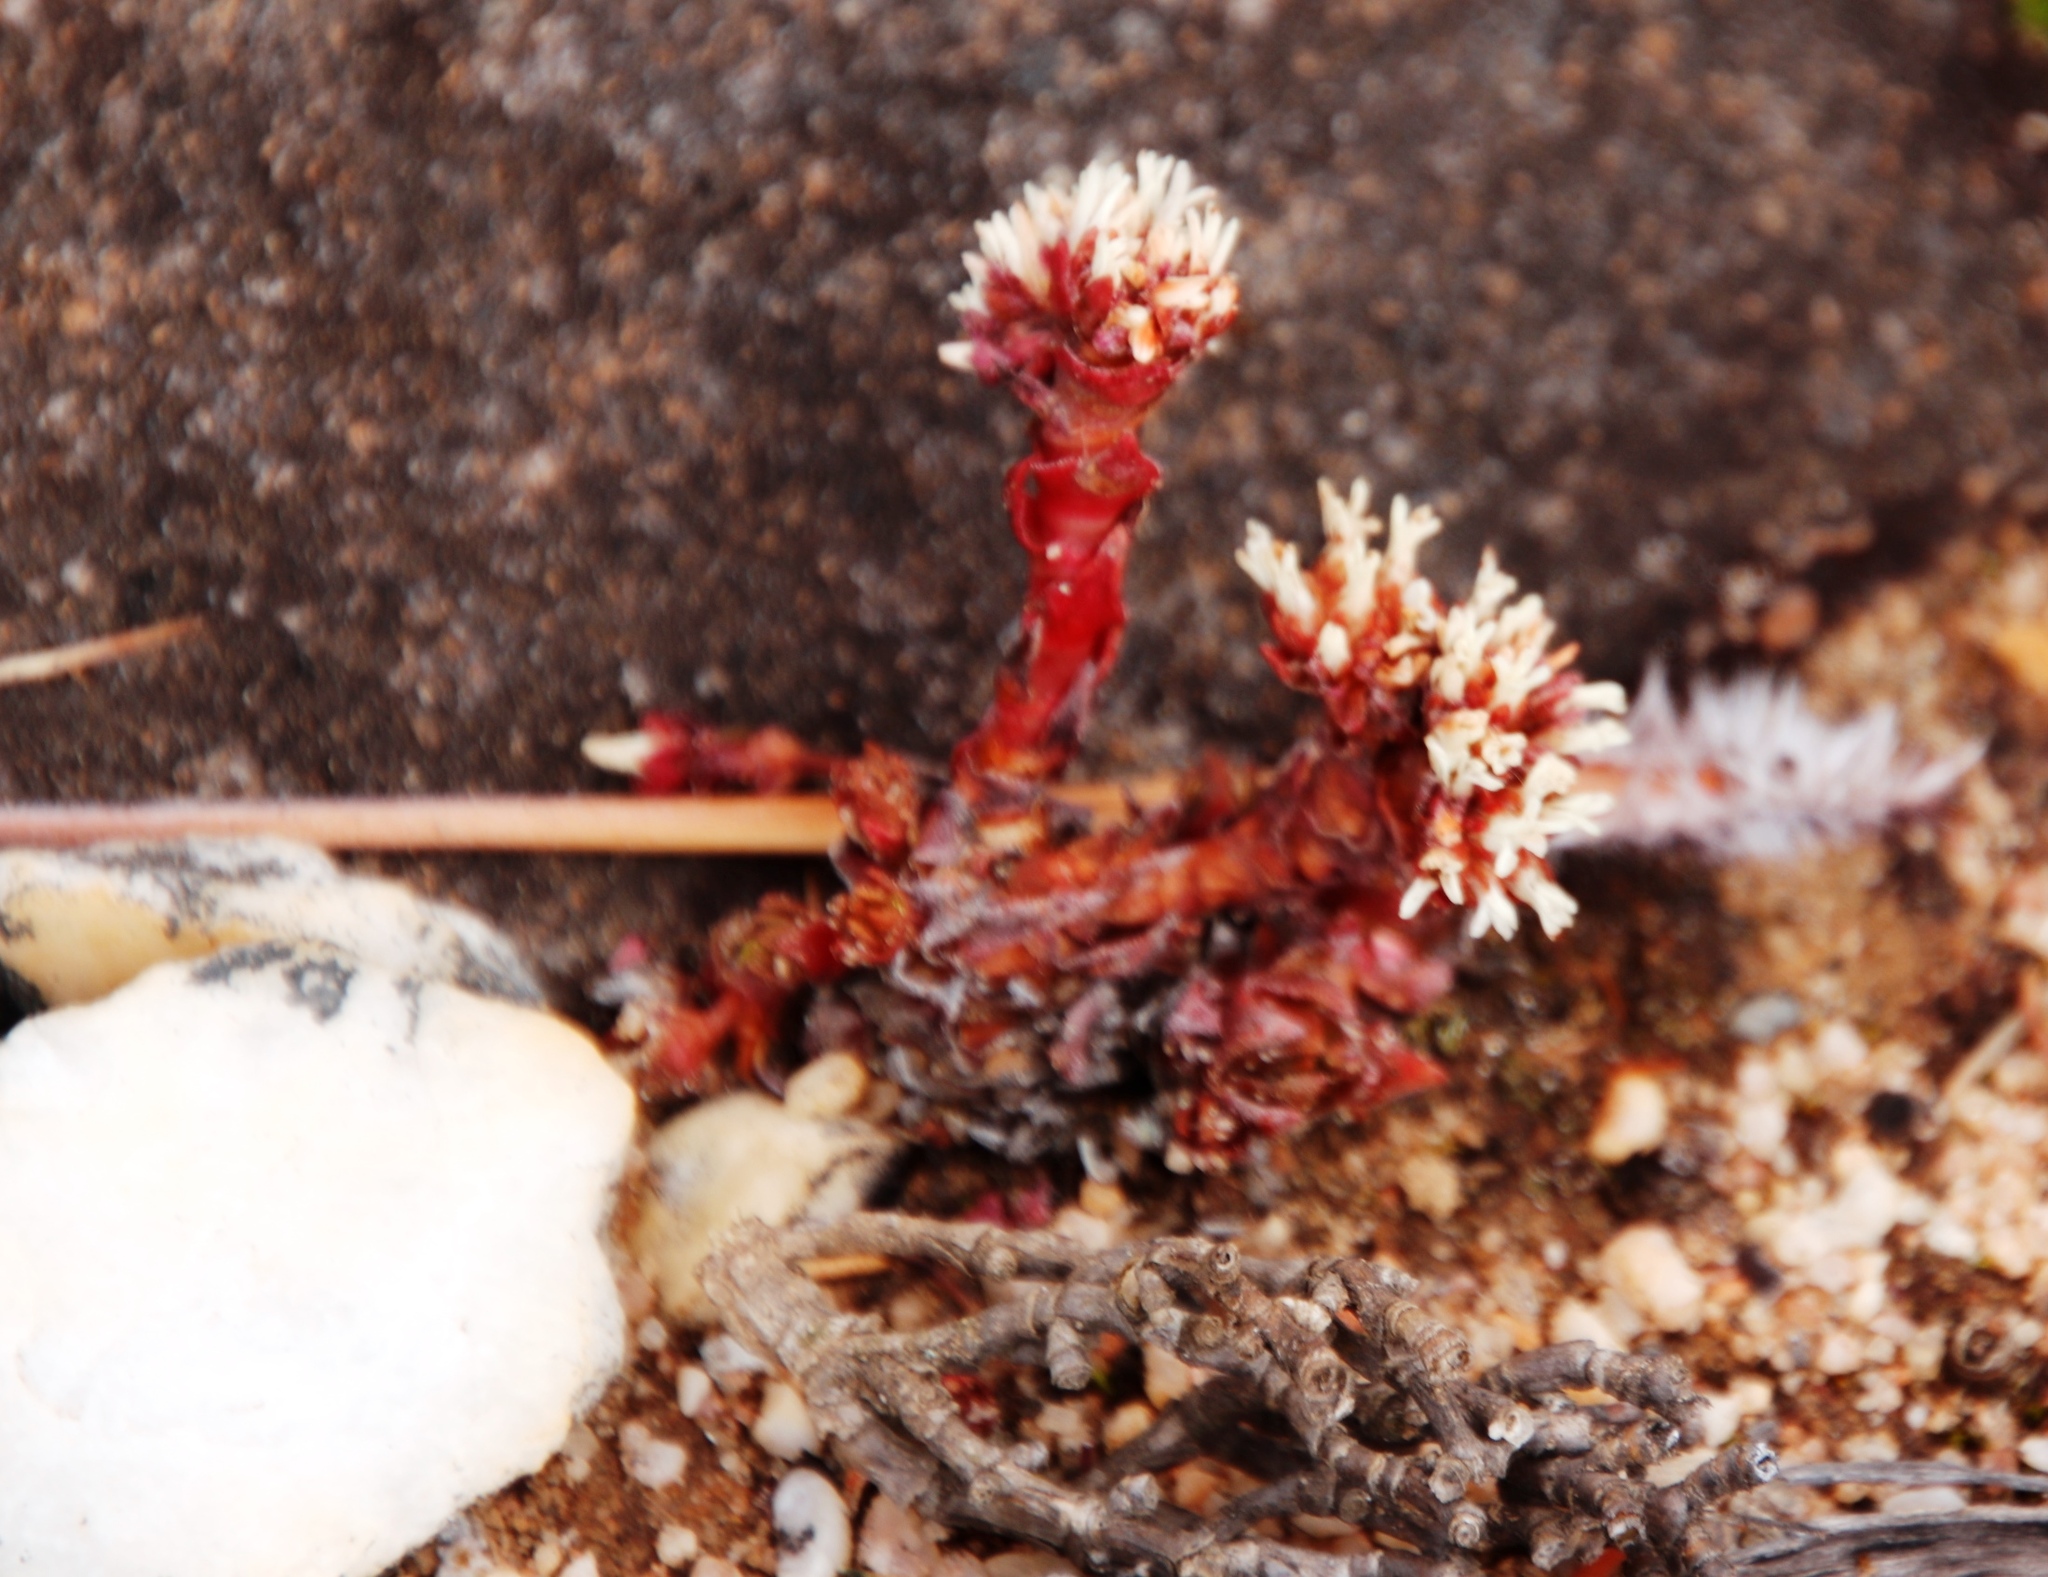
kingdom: Plantae
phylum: Tracheophyta
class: Magnoliopsida
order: Saxifragales
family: Crassulaceae
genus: Crassula
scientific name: Crassula alpestris
